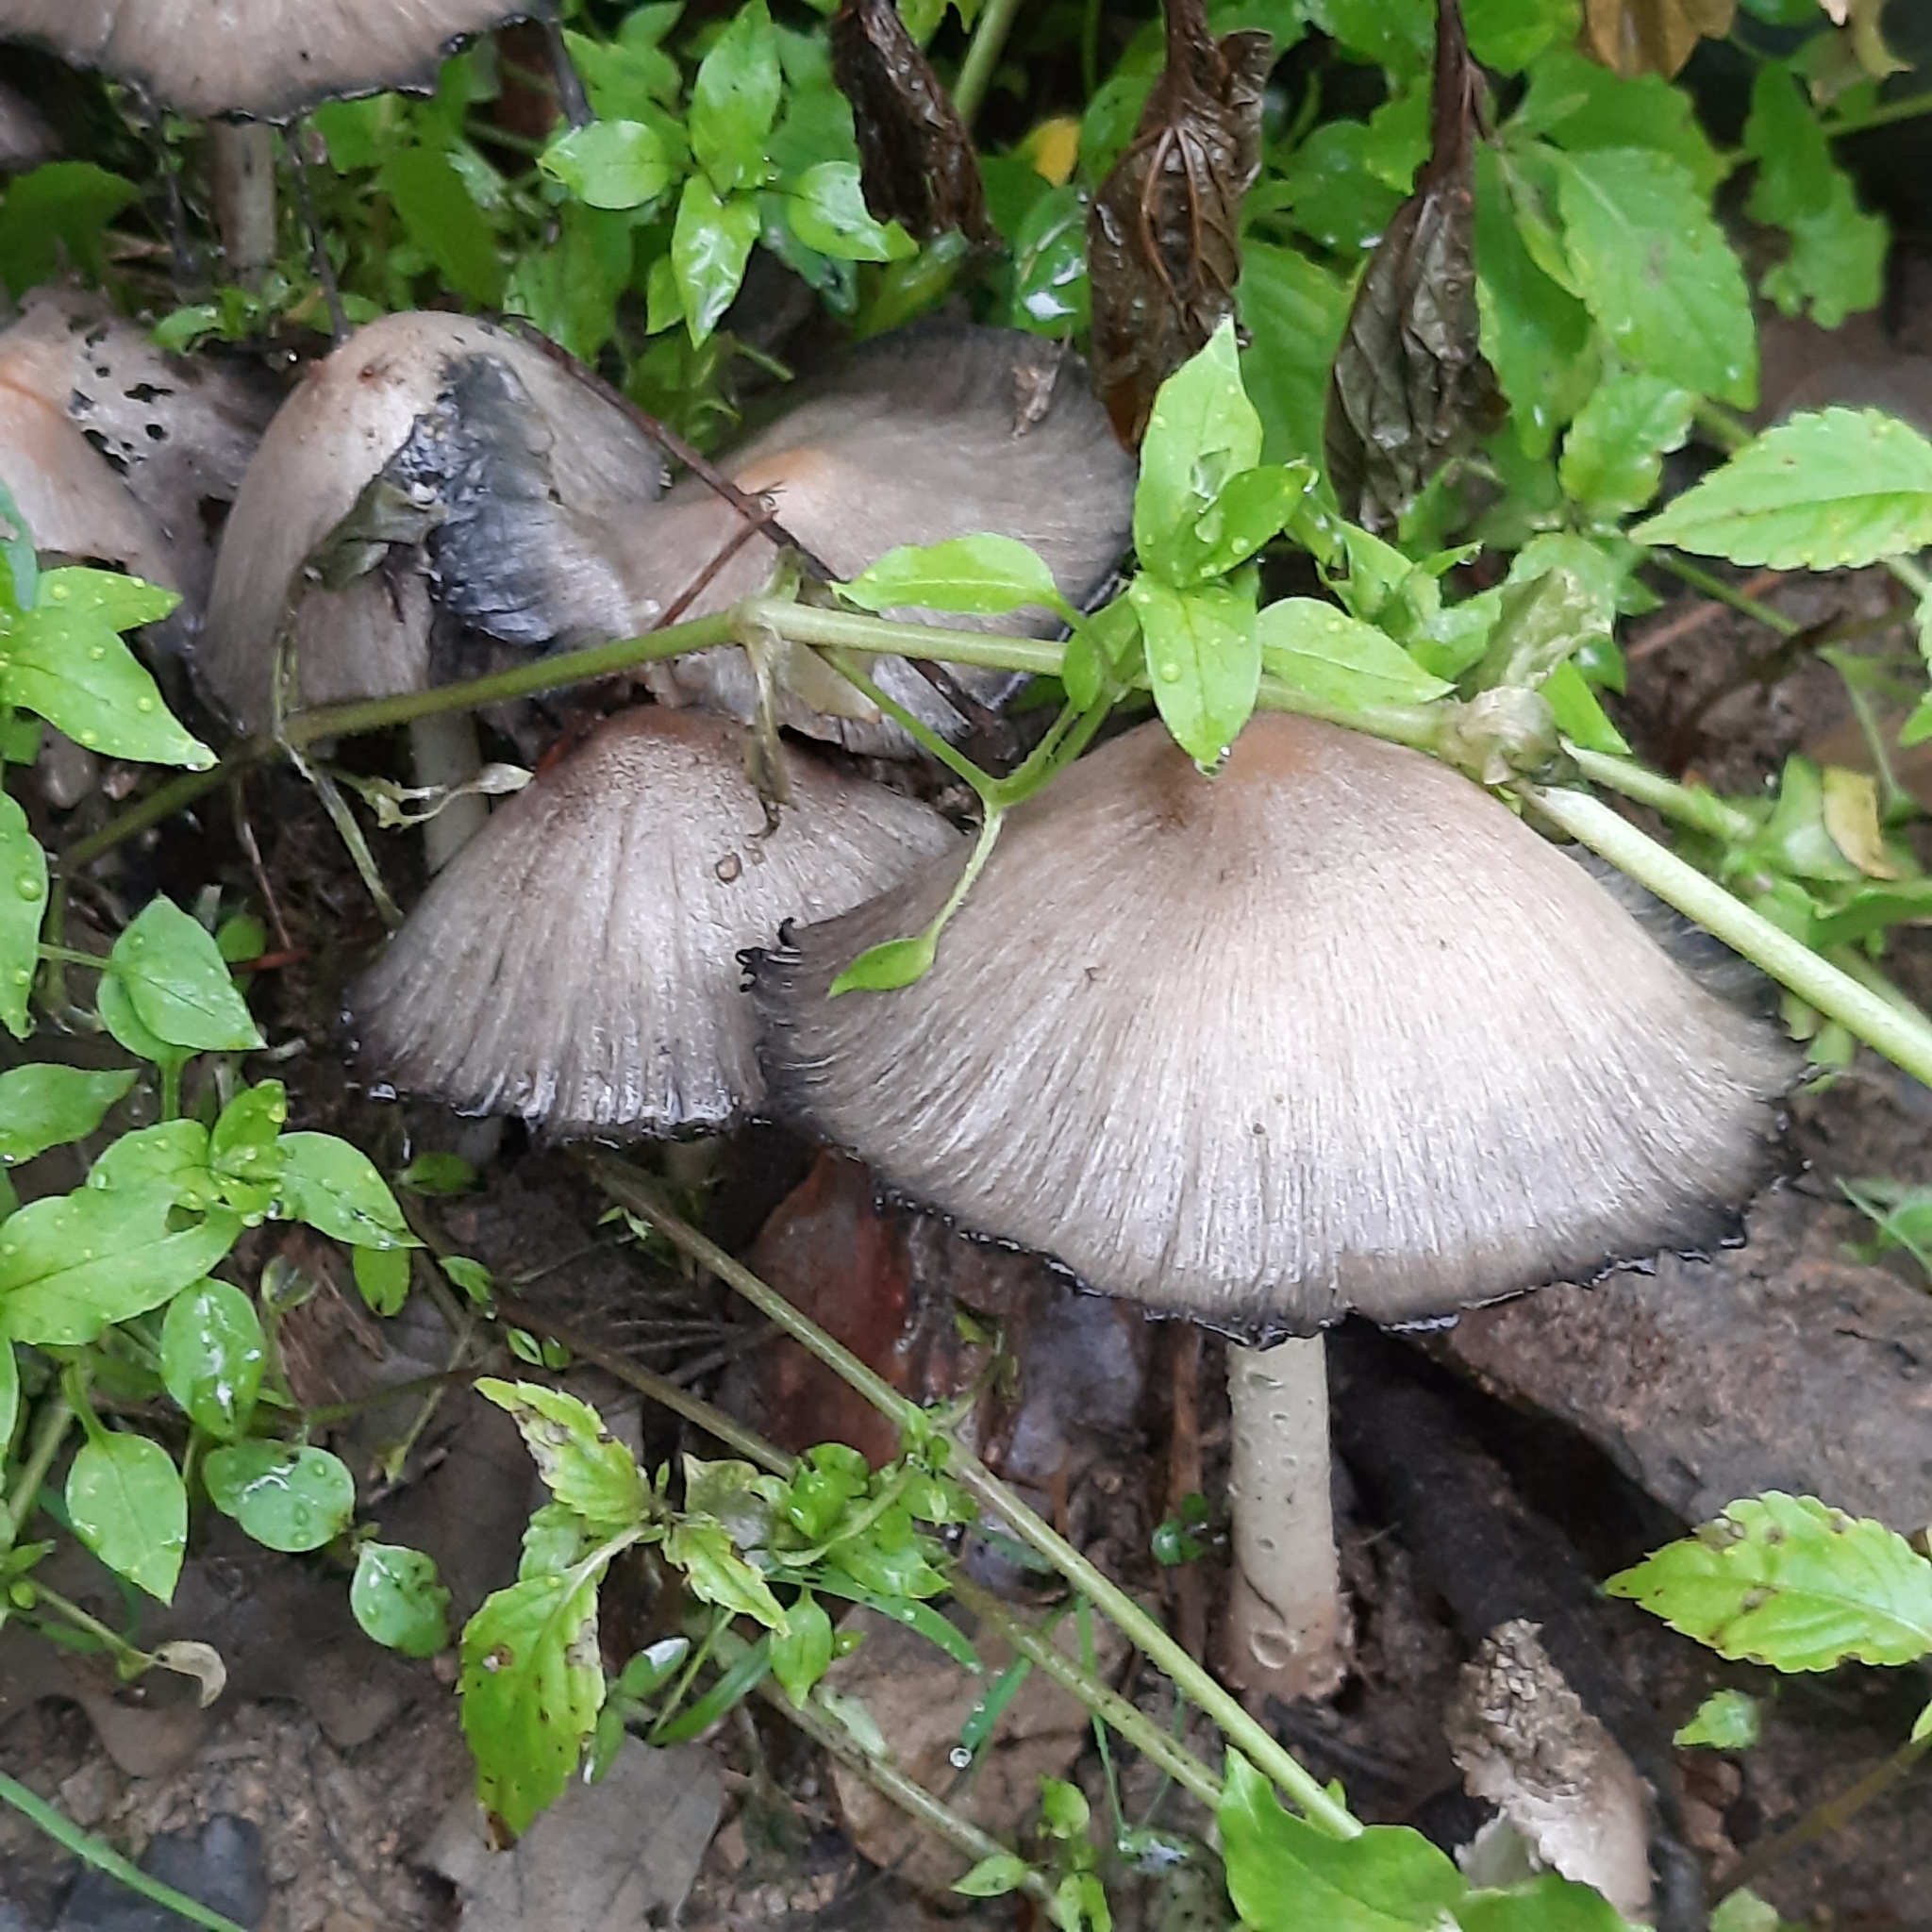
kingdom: Fungi
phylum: Basidiomycota
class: Agaricomycetes
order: Agaricales
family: Psathyrellaceae
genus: Coprinopsis
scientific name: Coprinopsis
